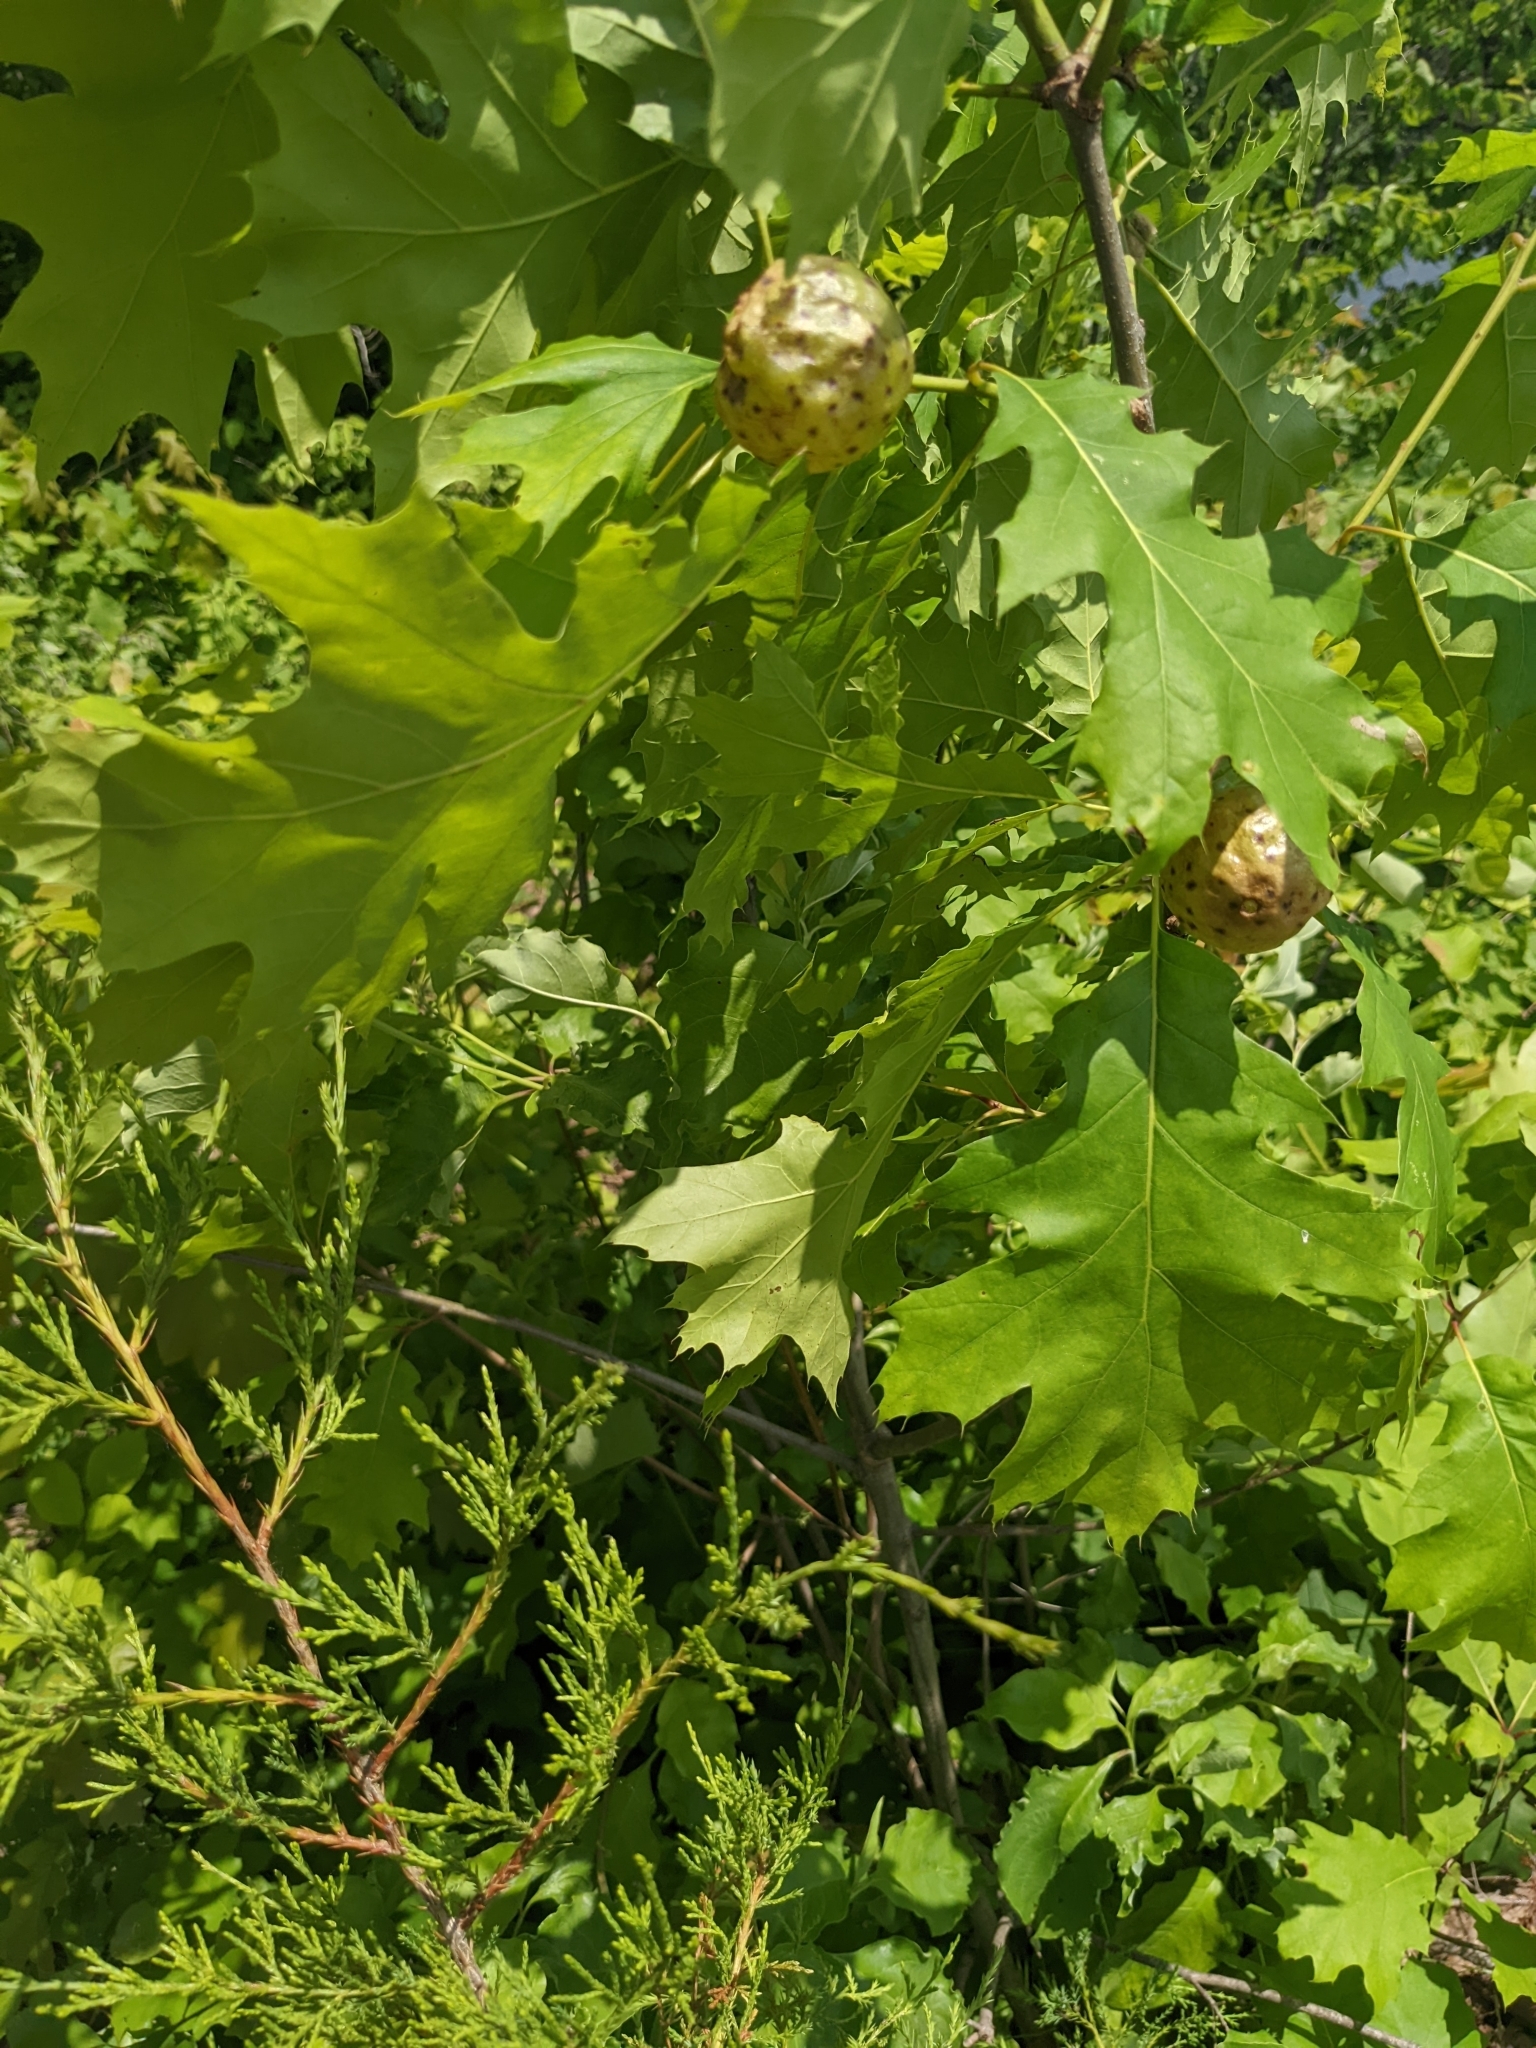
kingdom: Animalia
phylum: Arthropoda
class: Insecta
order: Hymenoptera
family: Cynipidae
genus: Amphibolips
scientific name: Amphibolips
